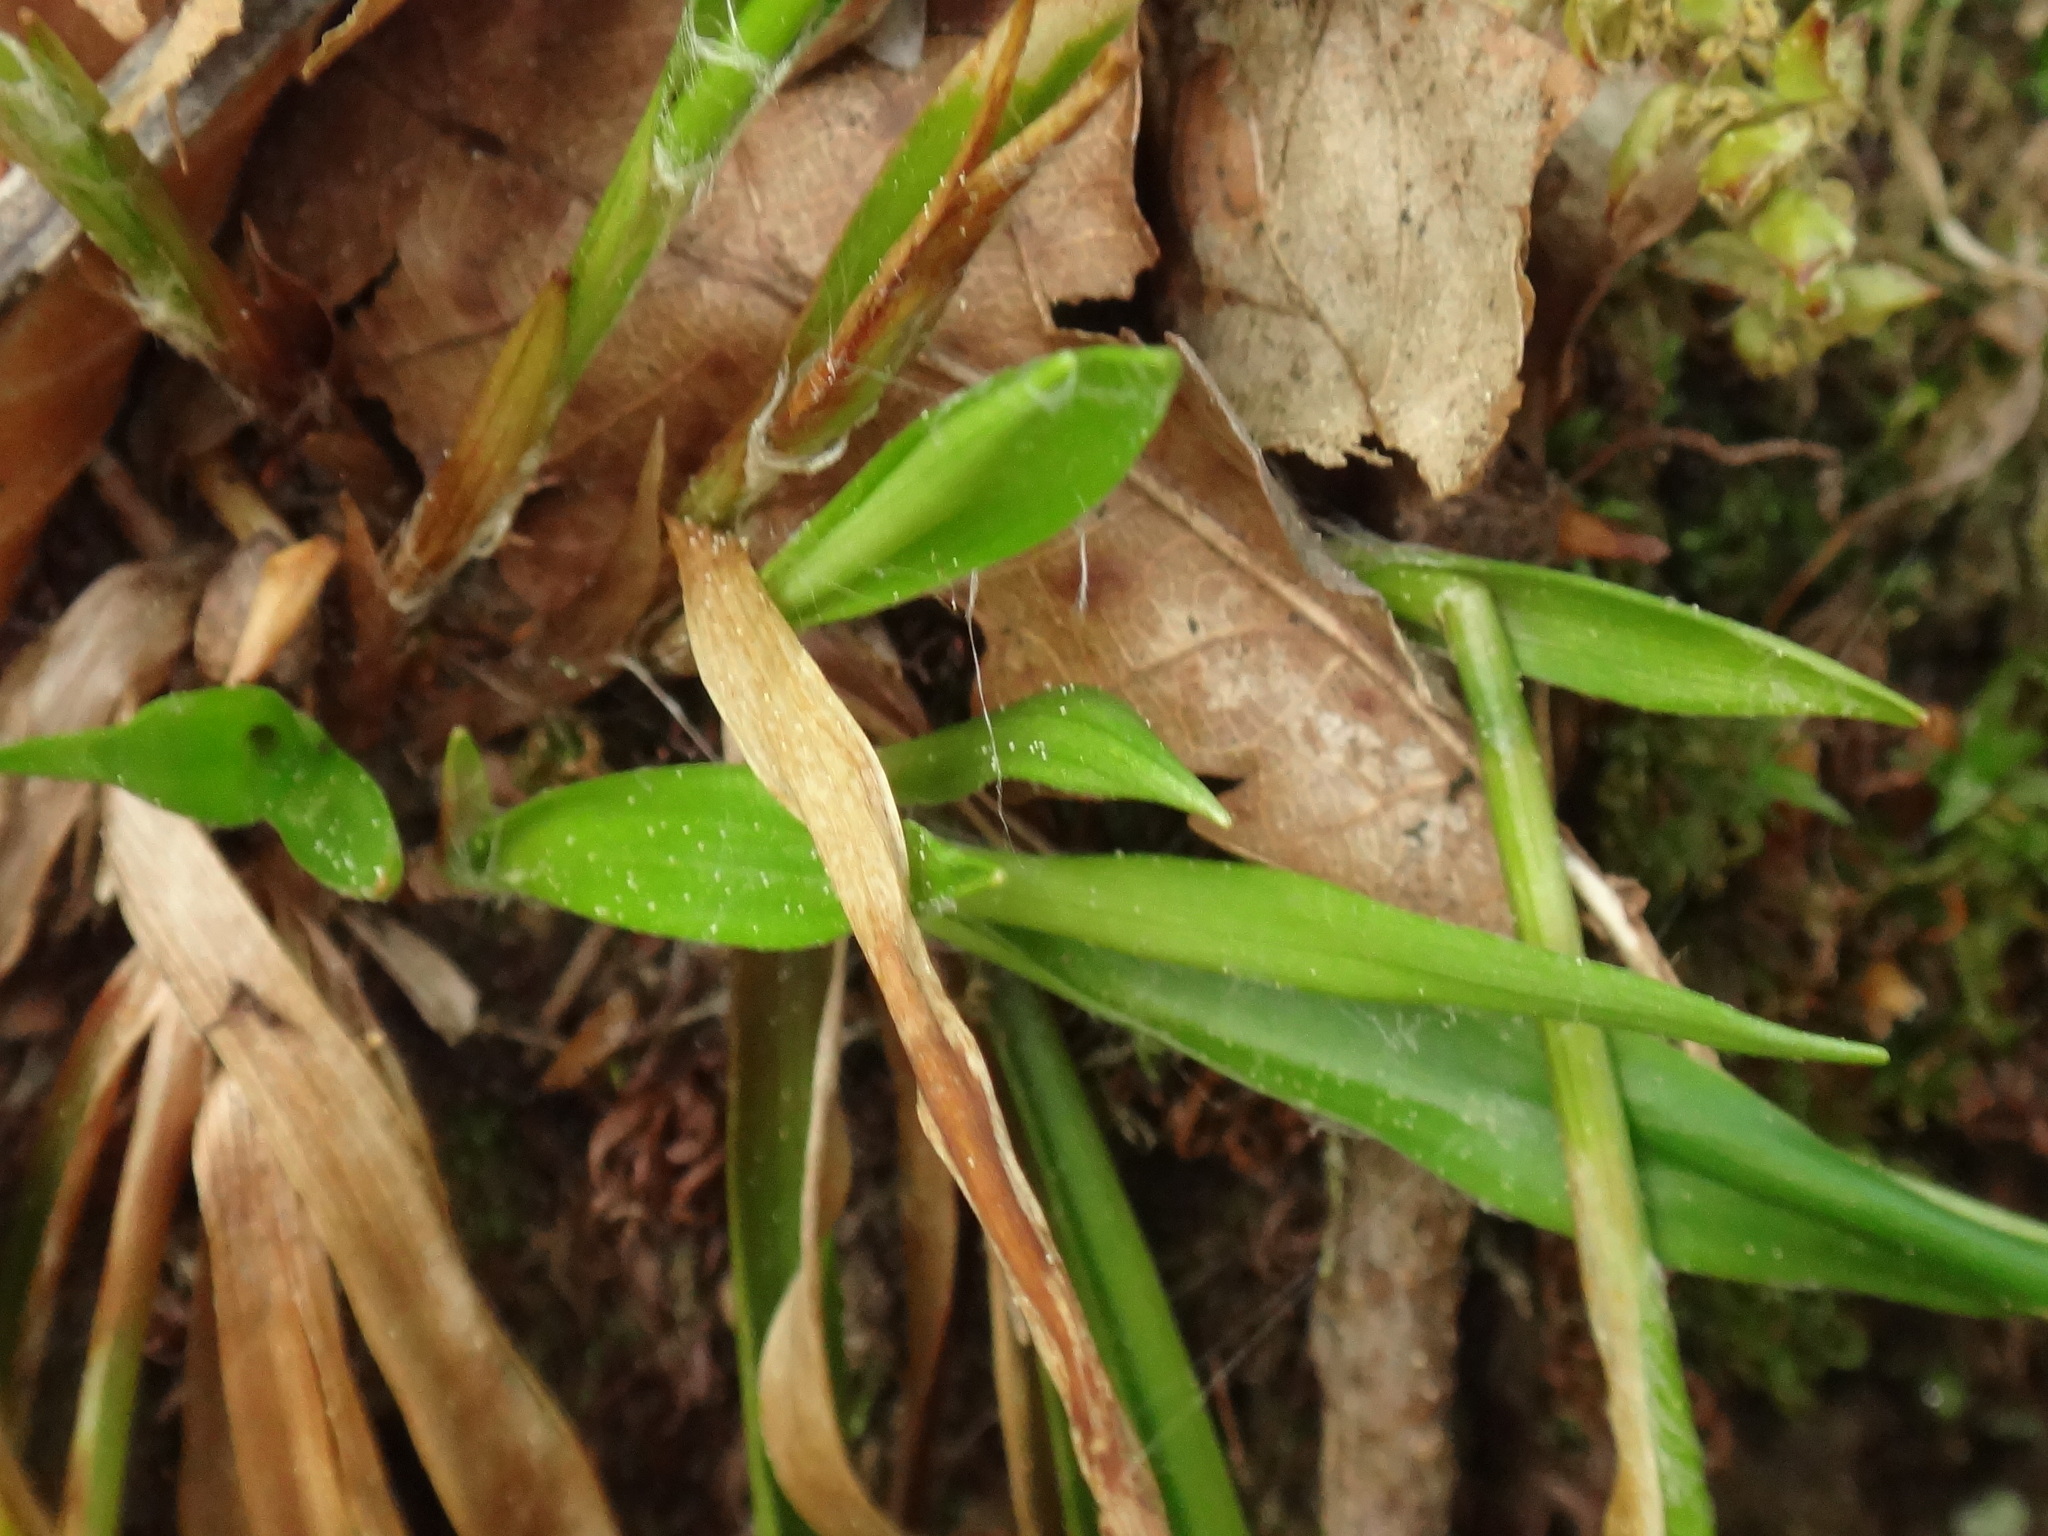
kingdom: Plantae
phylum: Tracheophyta
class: Liliopsida
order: Poales
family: Juncaceae
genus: Luzula
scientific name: Luzula pilosa
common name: Hairy wood-rush
